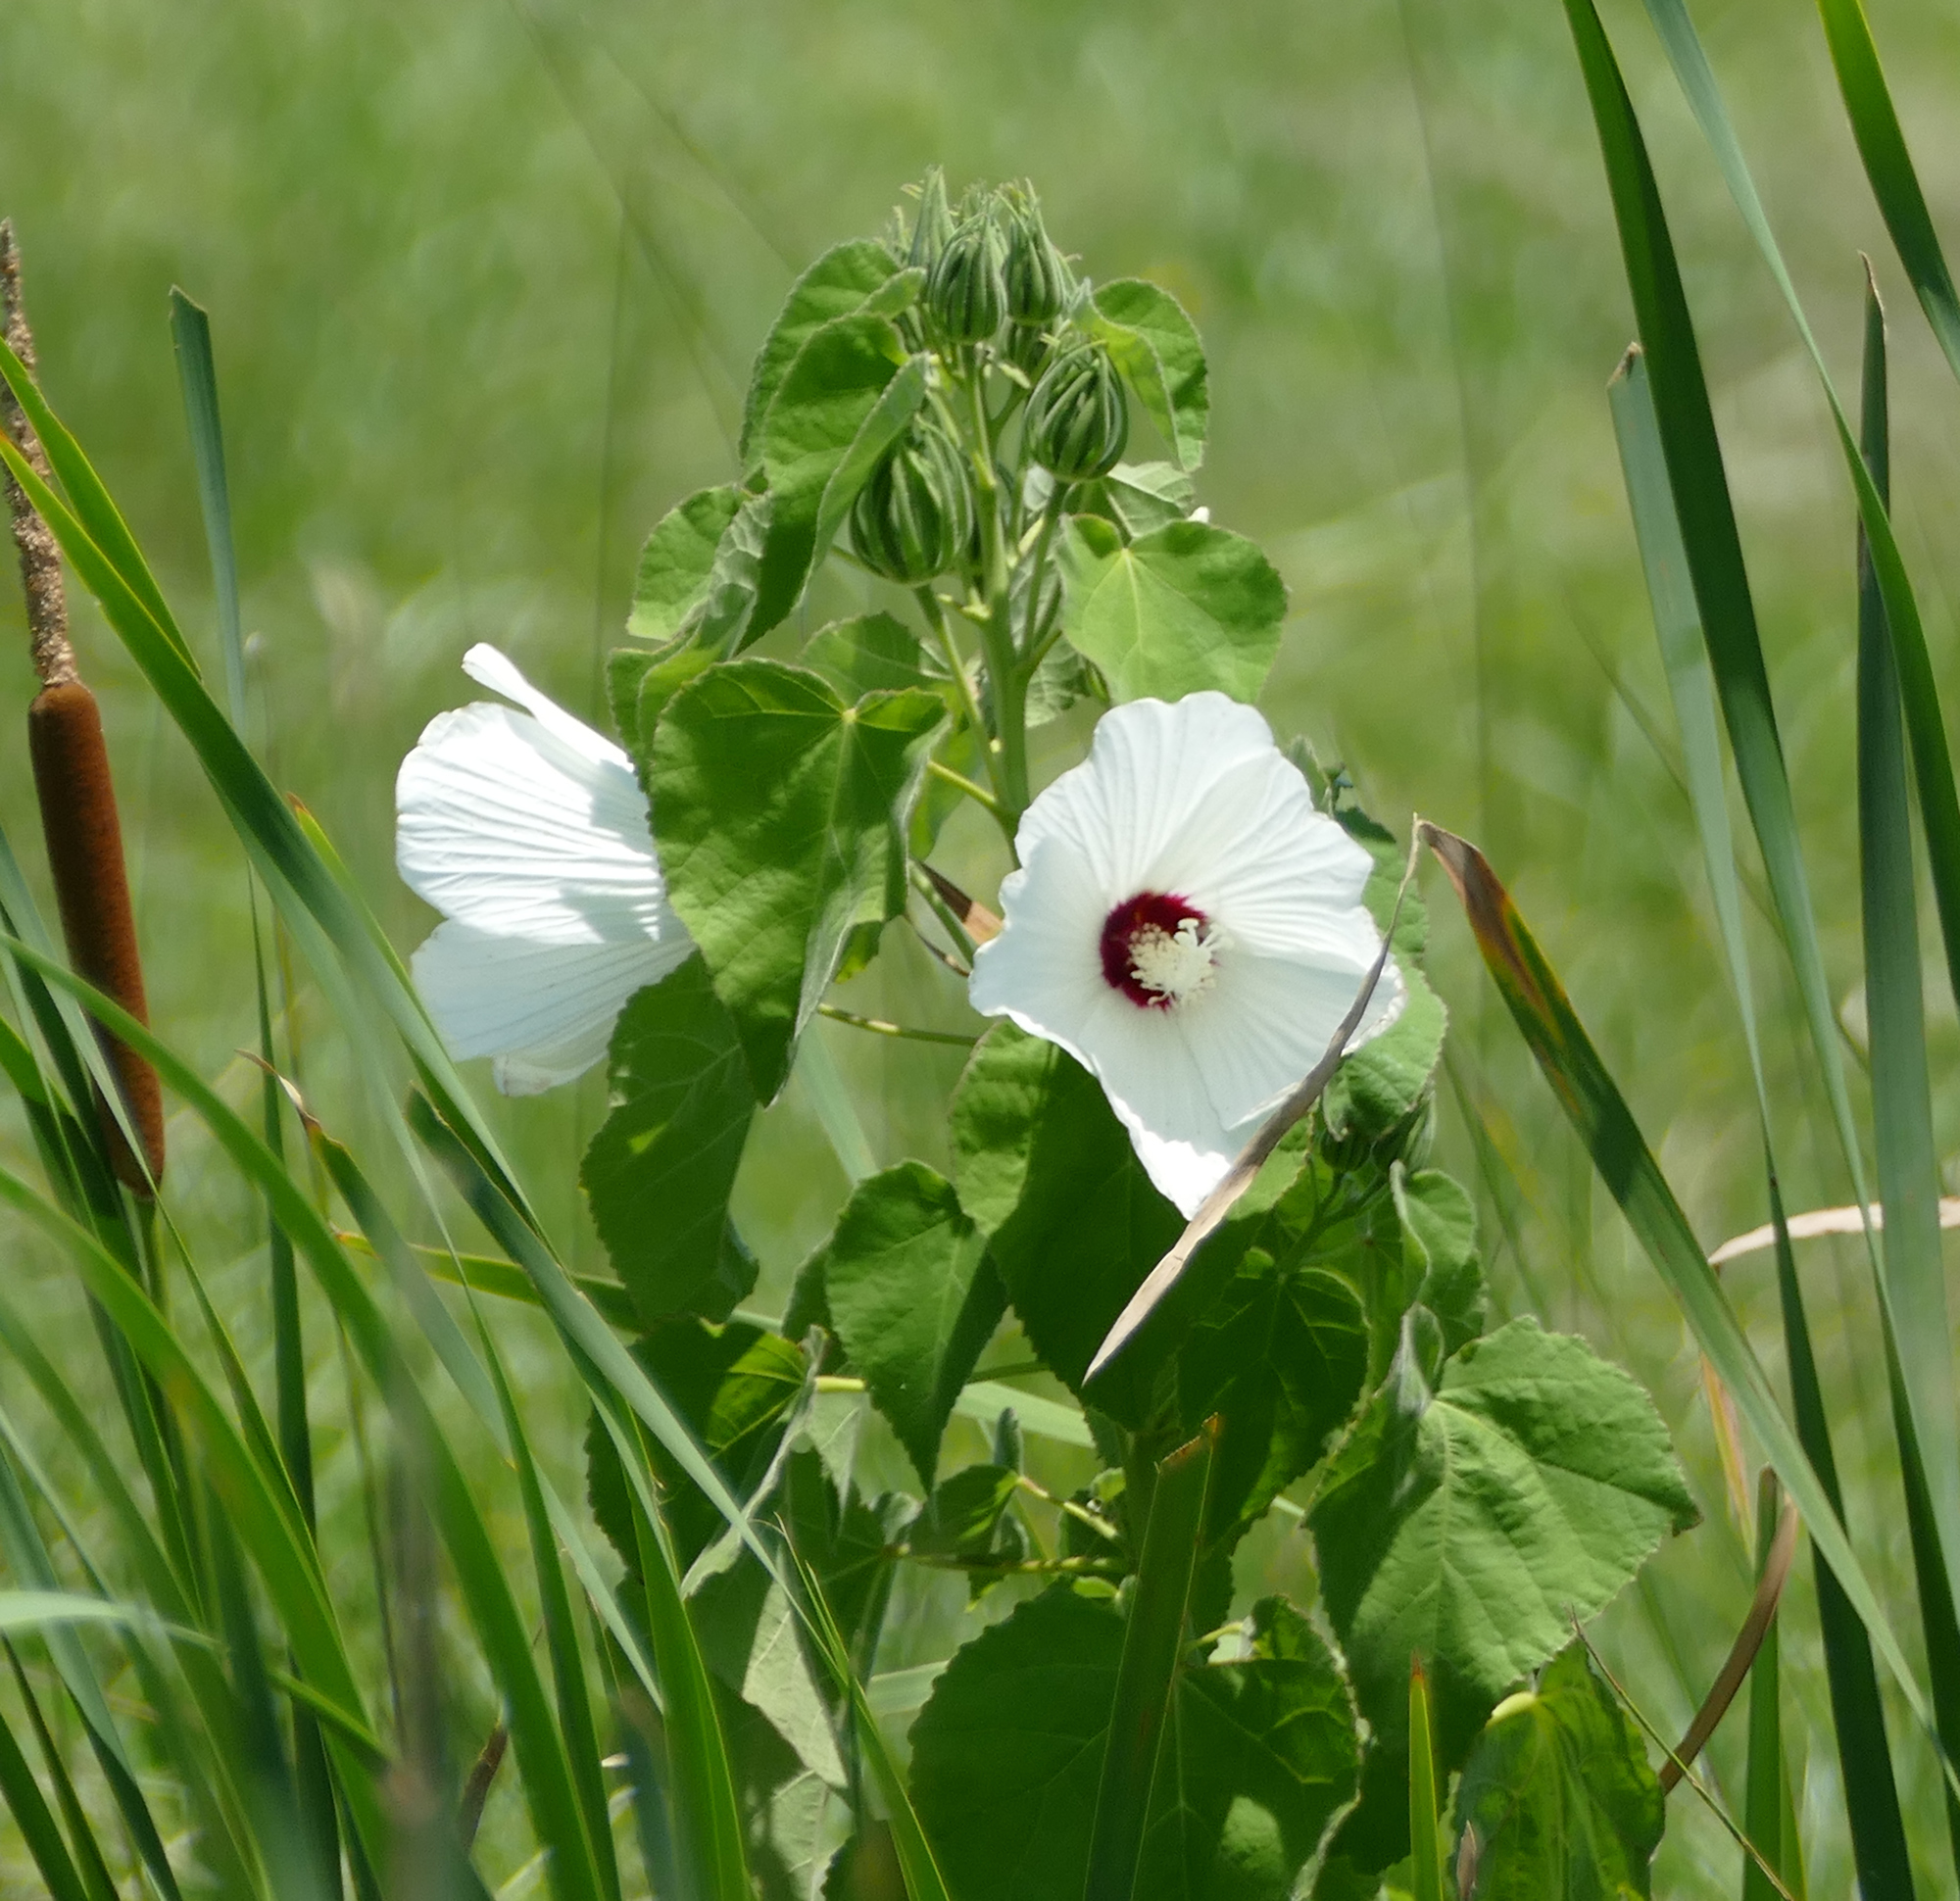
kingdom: Plantae
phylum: Tracheophyta
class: Magnoliopsida
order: Malvales
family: Malvaceae
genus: Hibiscus
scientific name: Hibiscus moscheutos
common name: Common rose-mallow
